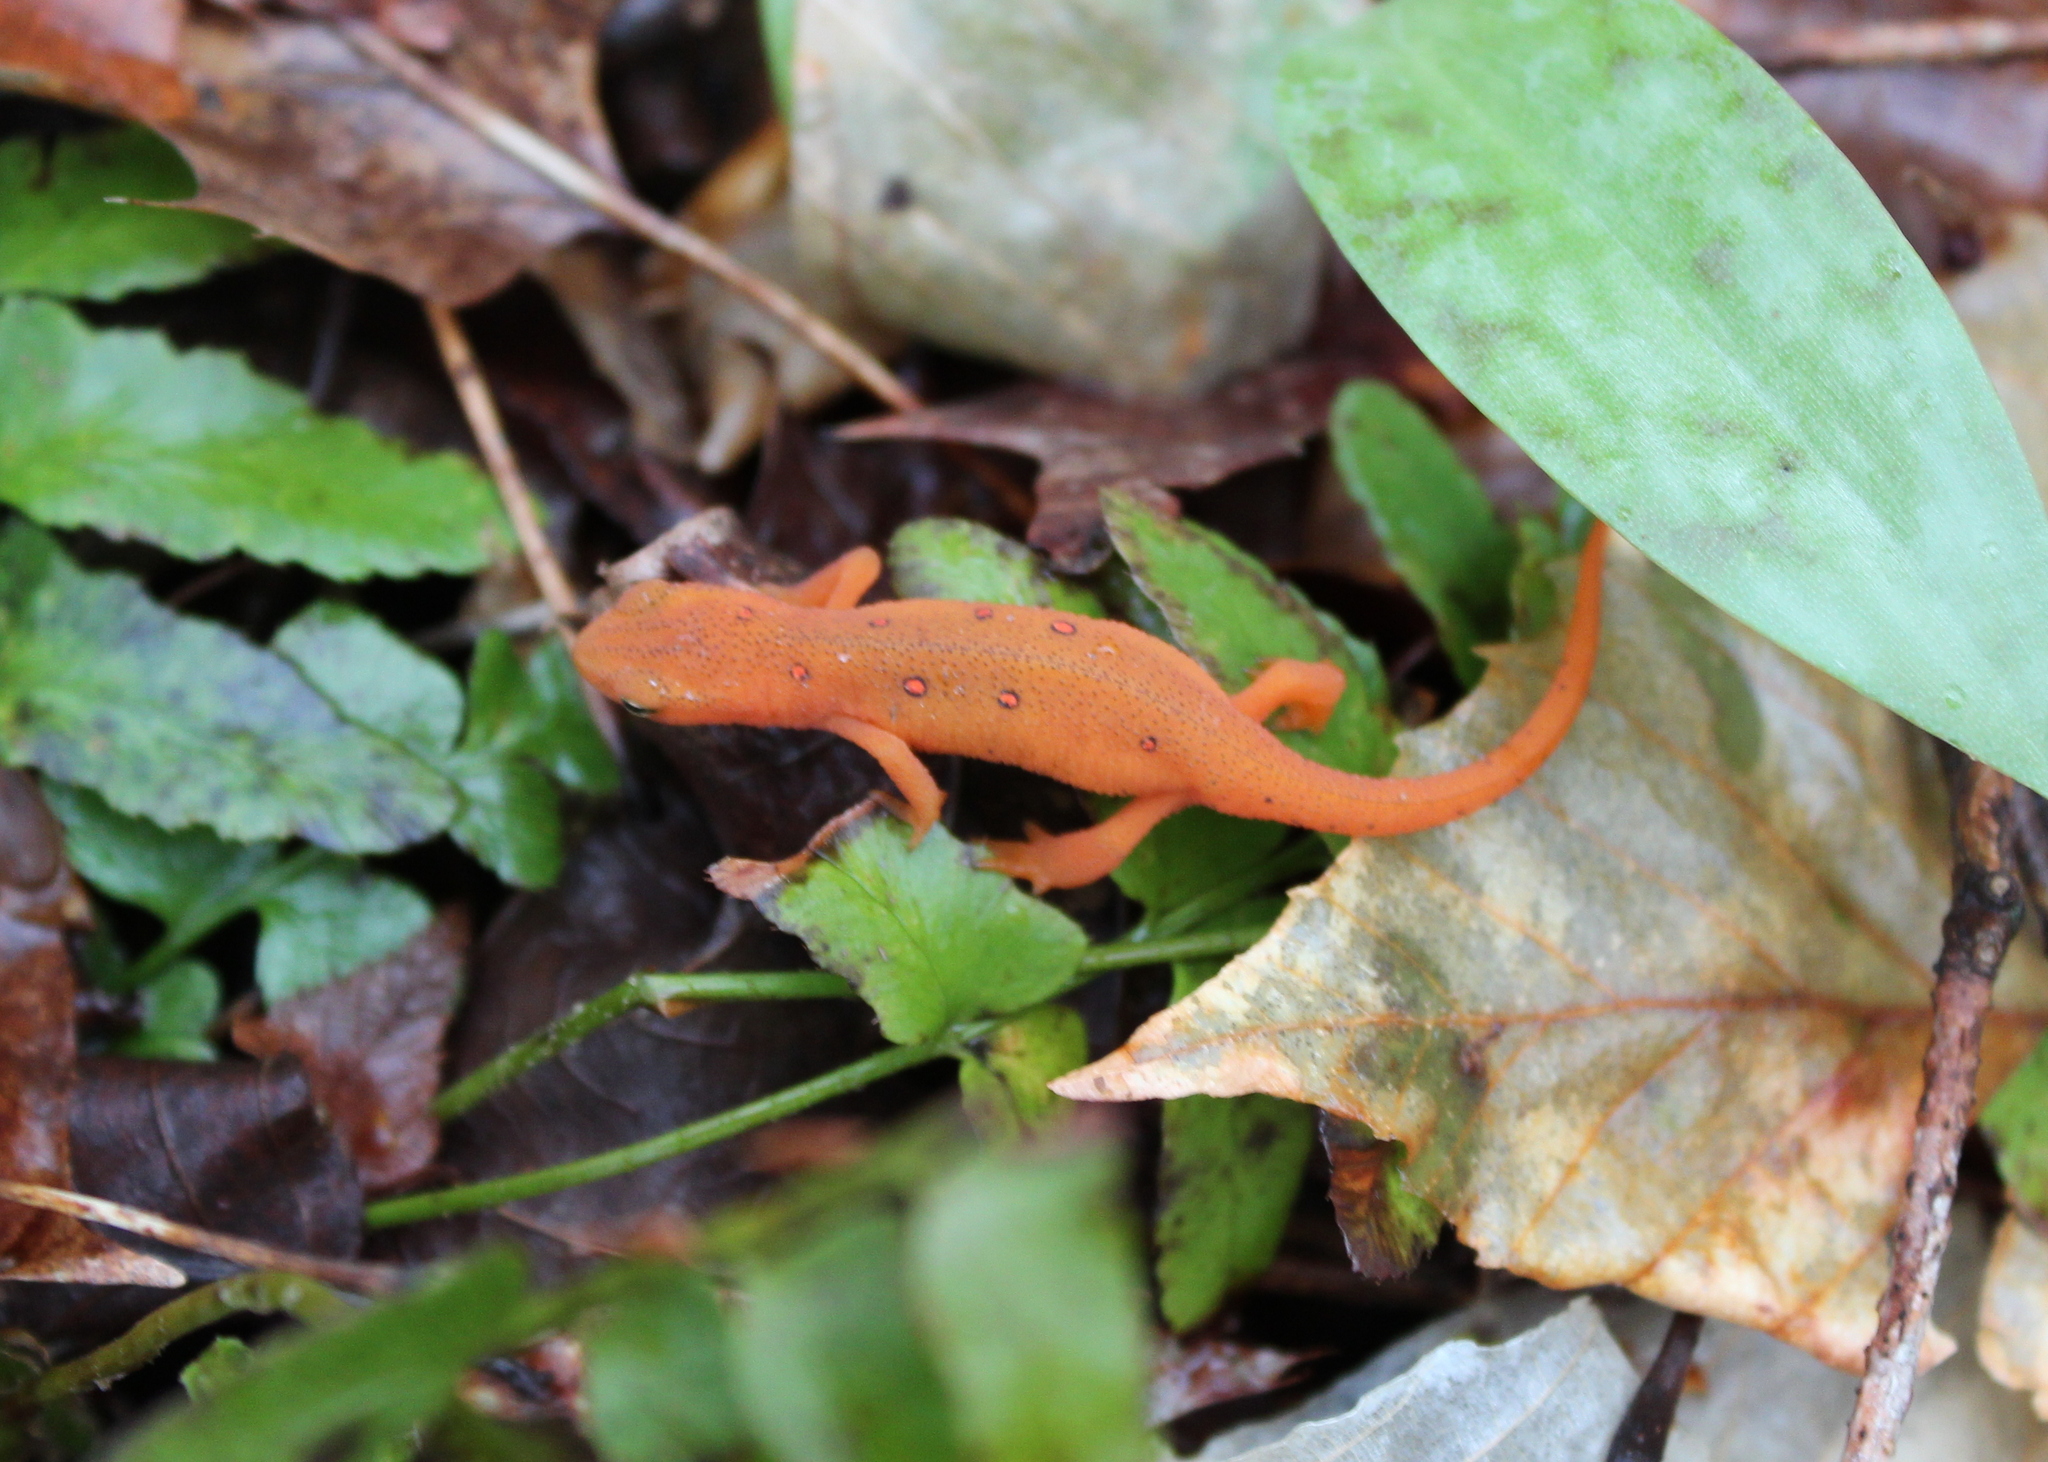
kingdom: Animalia
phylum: Chordata
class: Amphibia
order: Caudata
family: Salamandridae
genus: Notophthalmus
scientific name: Notophthalmus viridescens
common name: Eastern newt
